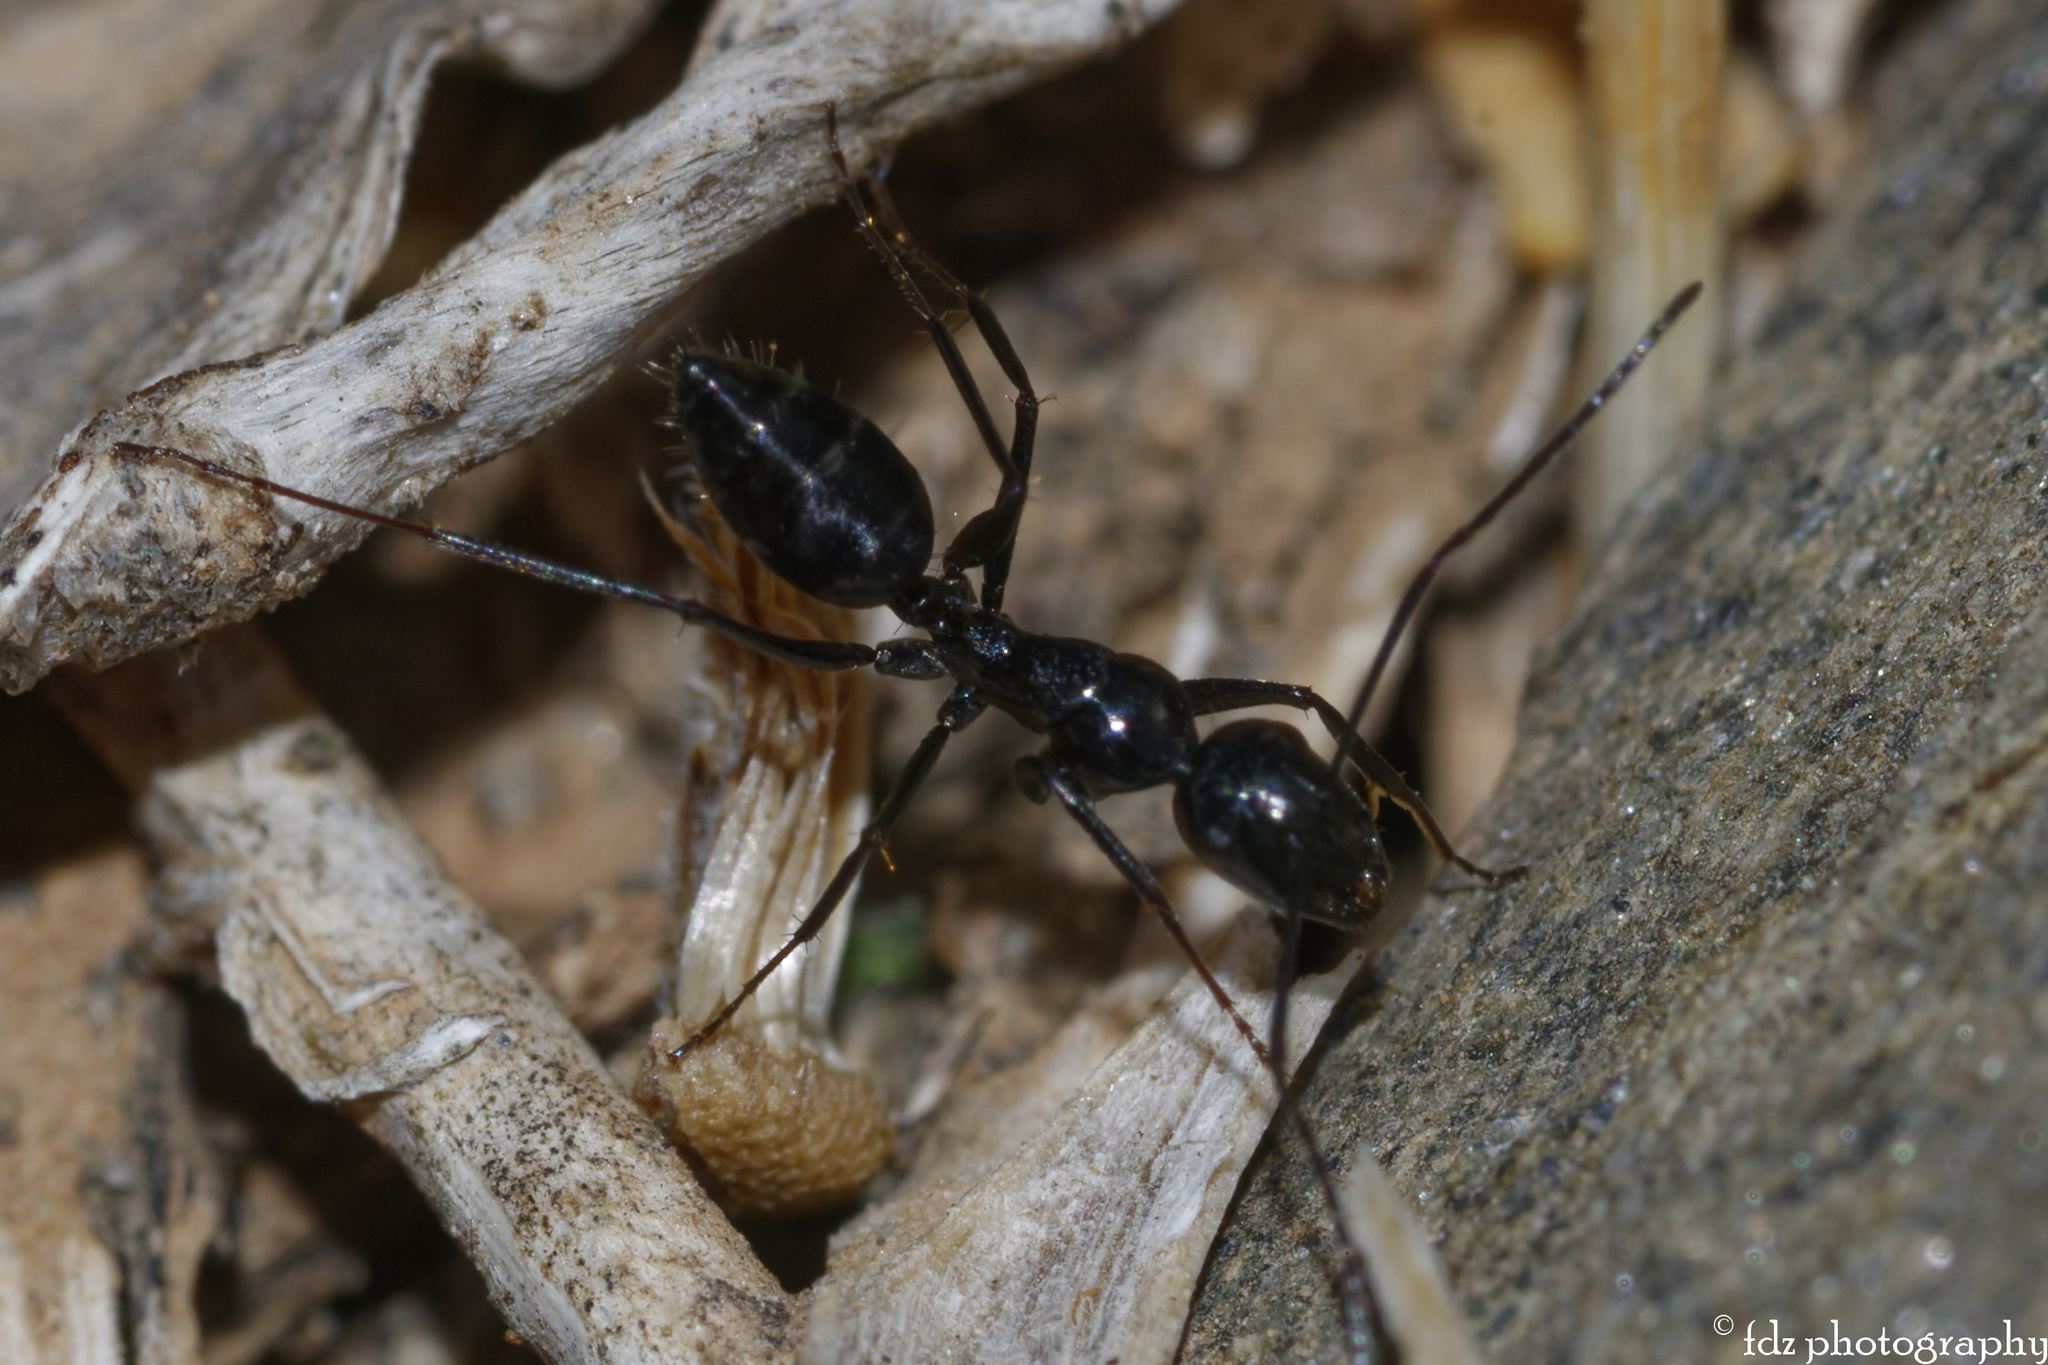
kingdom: Animalia
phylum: Arthropoda
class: Insecta
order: Hymenoptera
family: Formicidae
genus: Camponotus
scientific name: Camponotus aethiops
